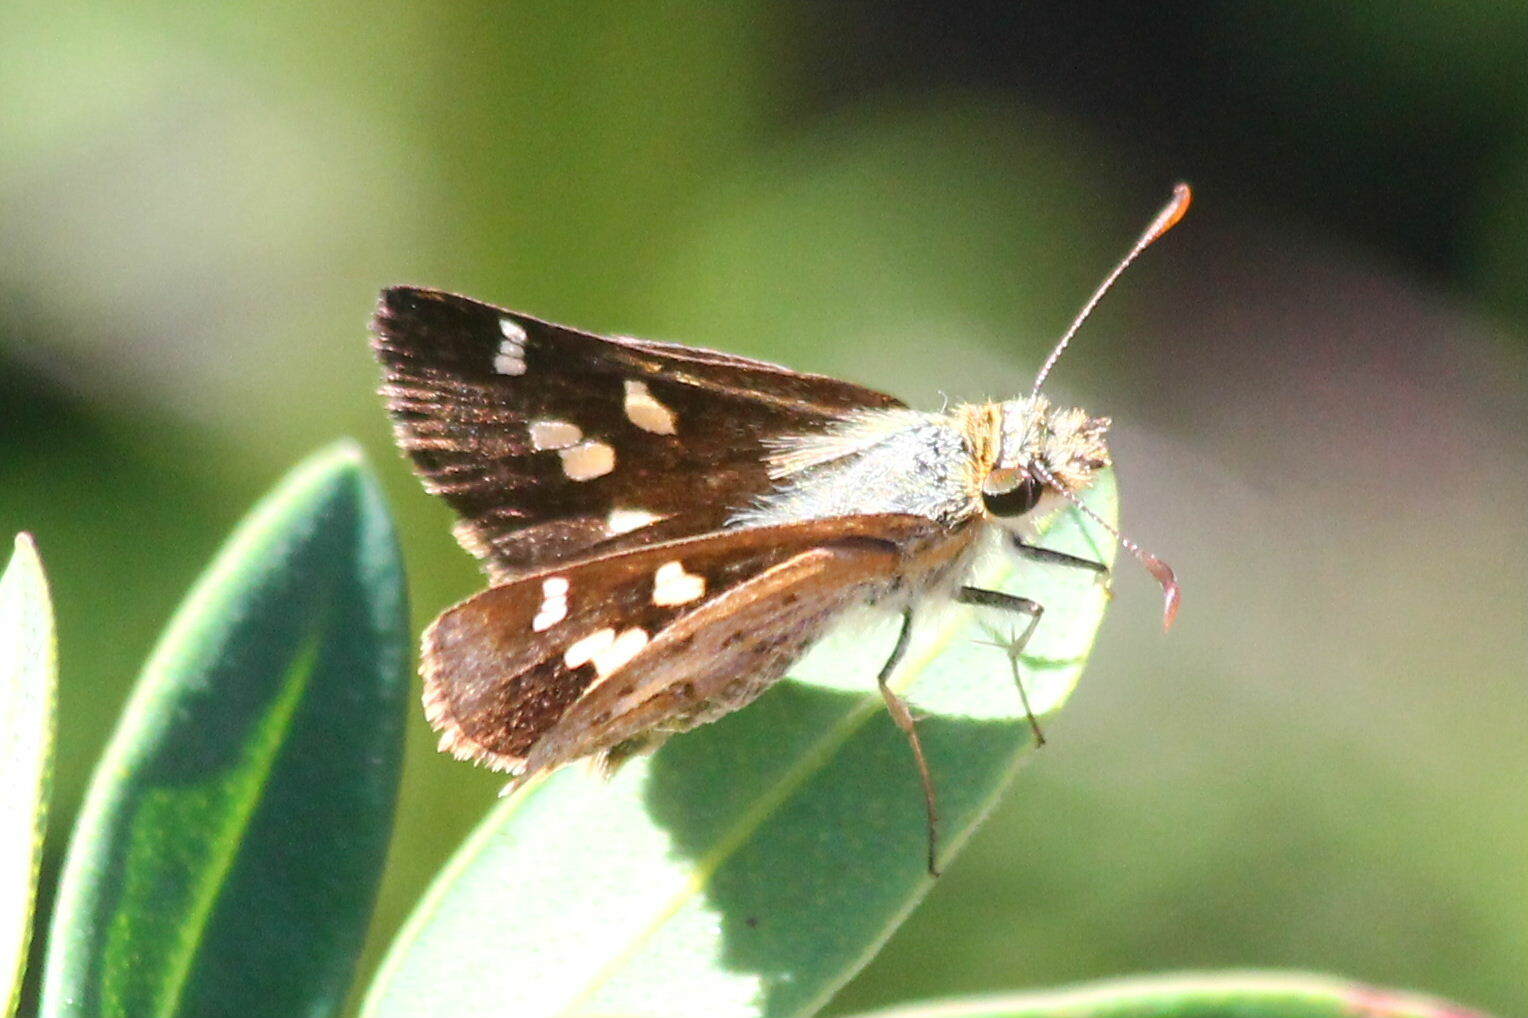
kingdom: Animalia
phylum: Arthropoda
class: Insecta
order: Lepidoptera
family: Hesperiidae
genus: Dispar
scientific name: Dispar compacta
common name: Barred skipper
